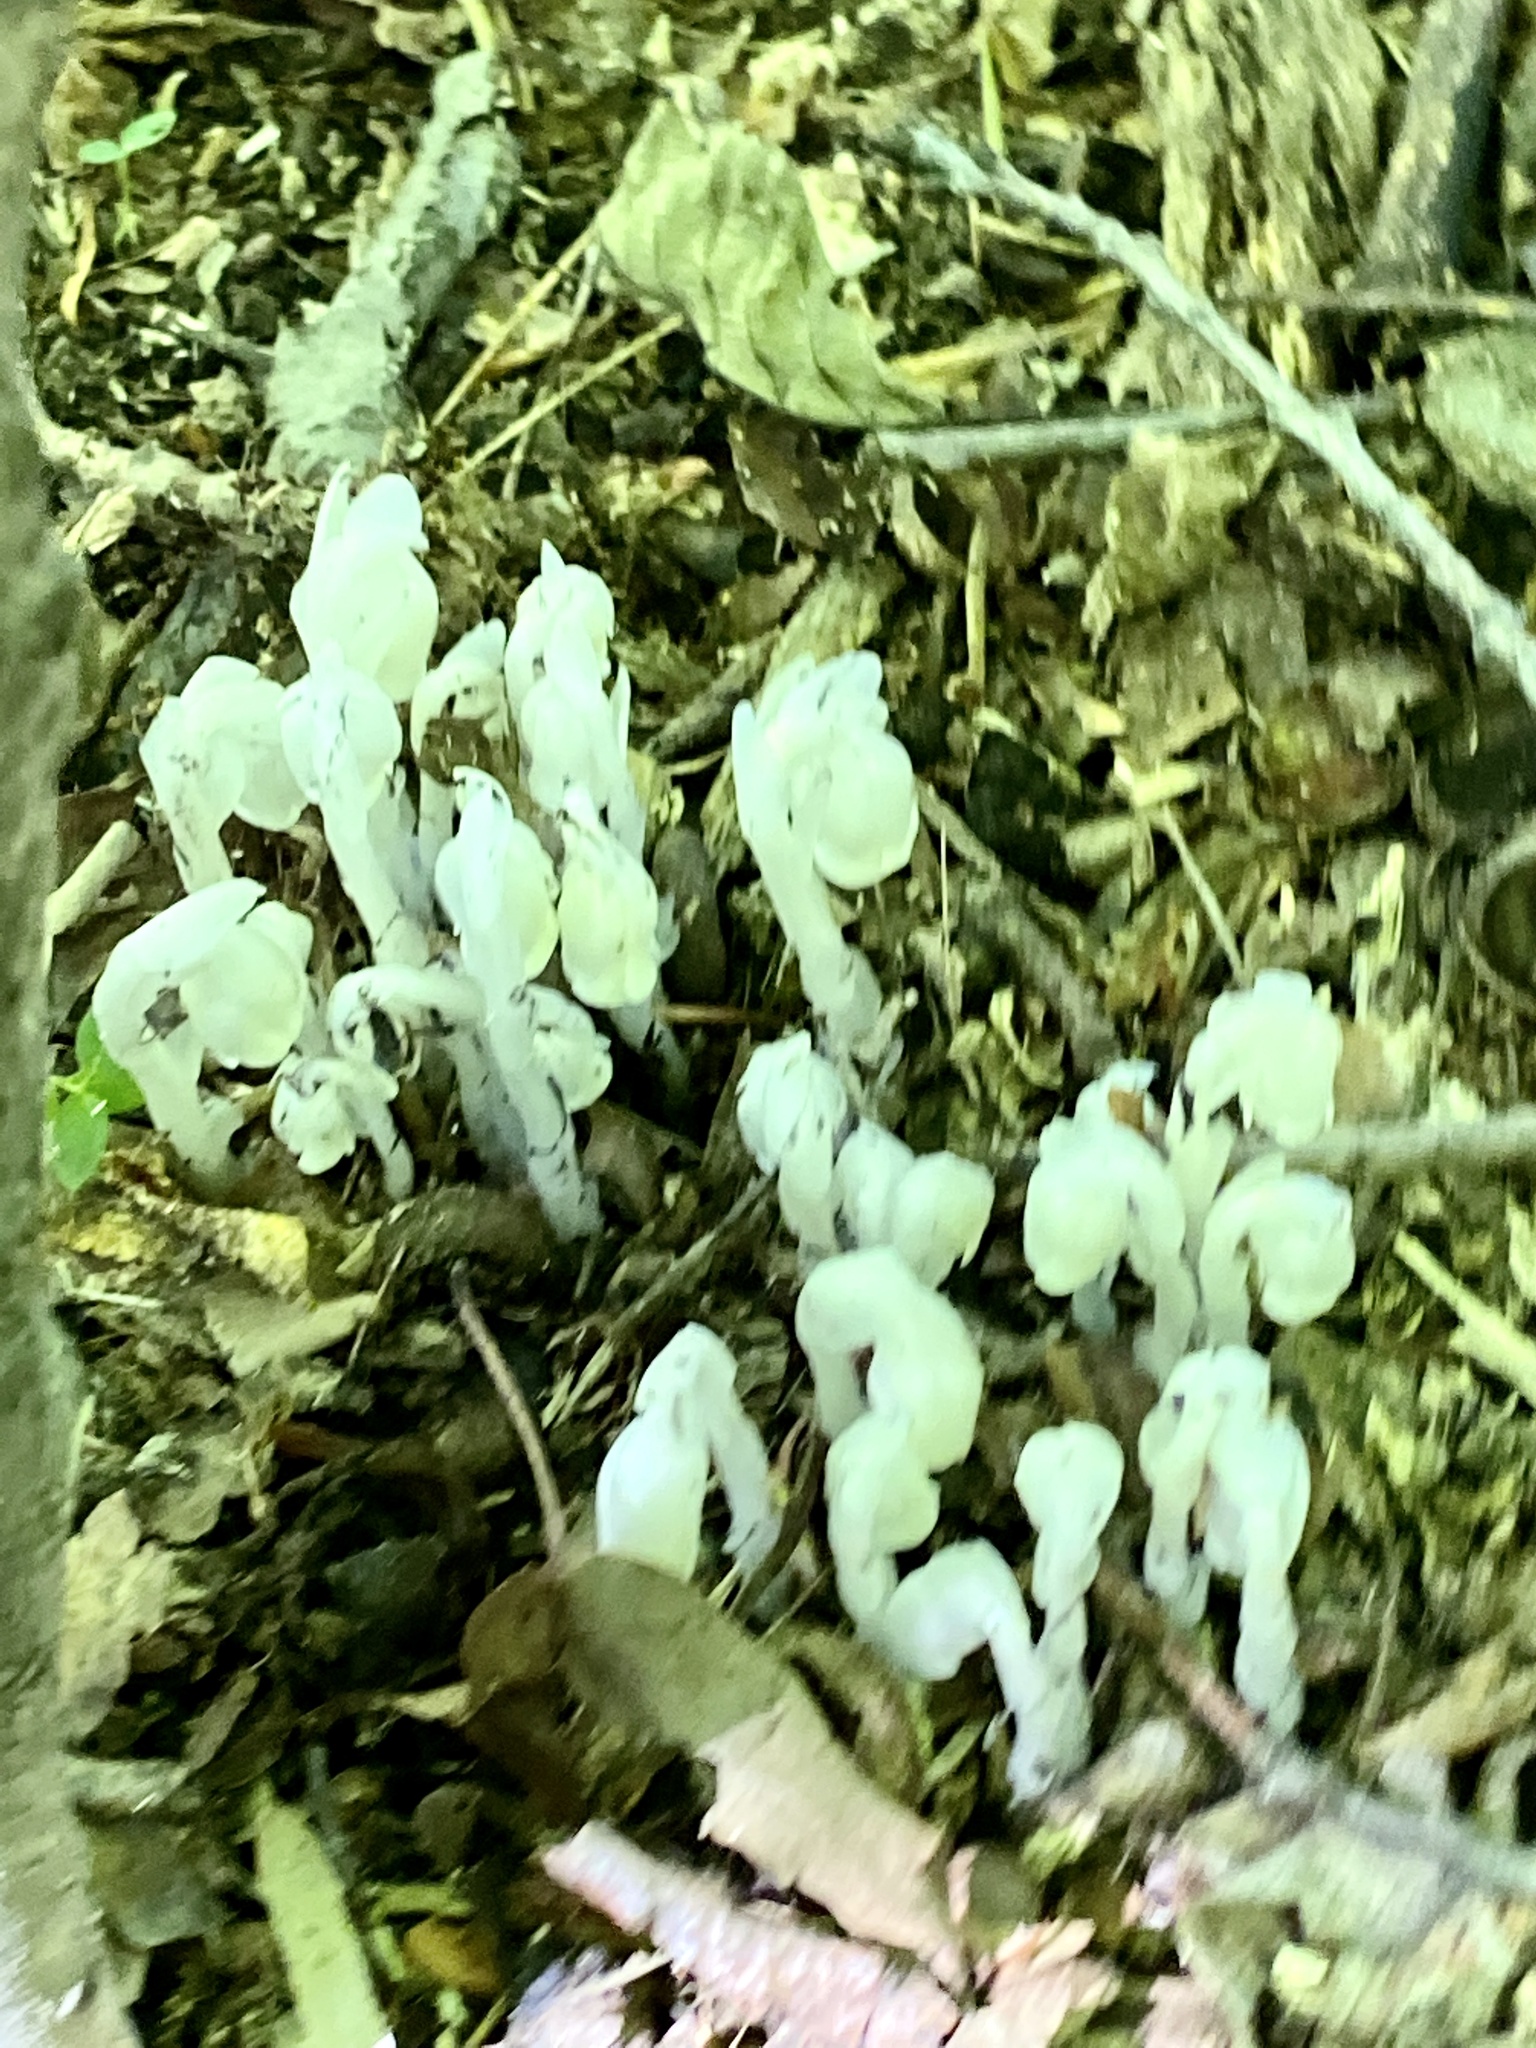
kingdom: Plantae
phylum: Tracheophyta
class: Magnoliopsida
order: Ericales
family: Ericaceae
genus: Monotropa
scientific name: Monotropa uniflora
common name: Convulsion root
